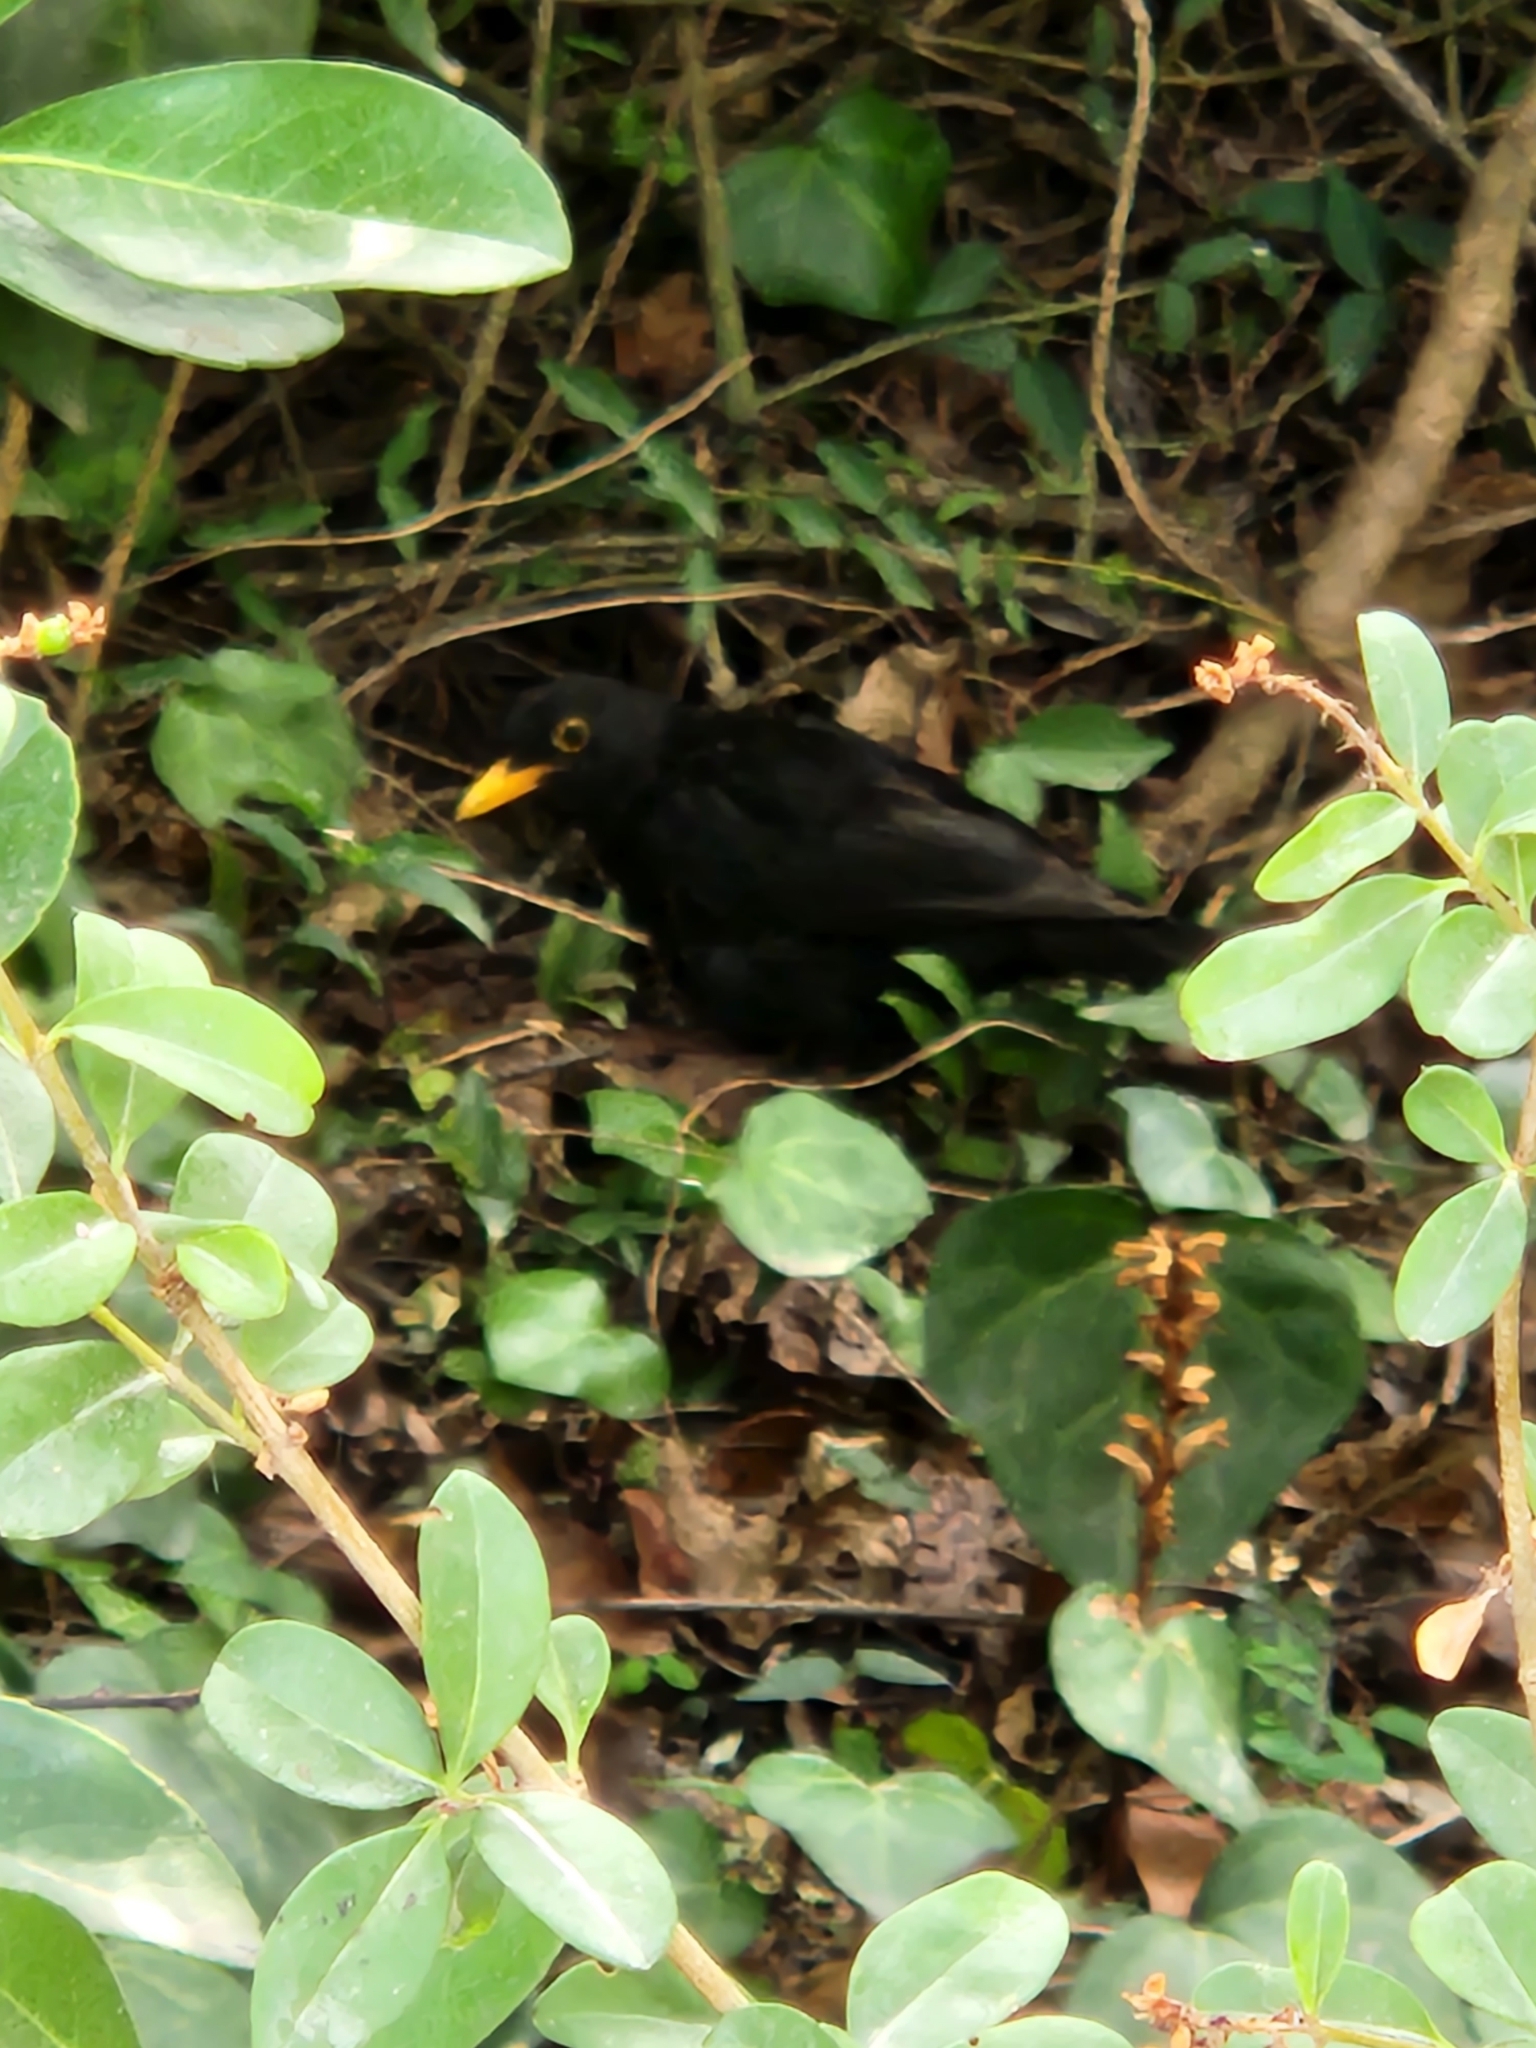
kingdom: Animalia
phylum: Chordata
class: Aves
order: Passeriformes
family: Turdidae
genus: Turdus
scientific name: Turdus merula
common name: Common blackbird
